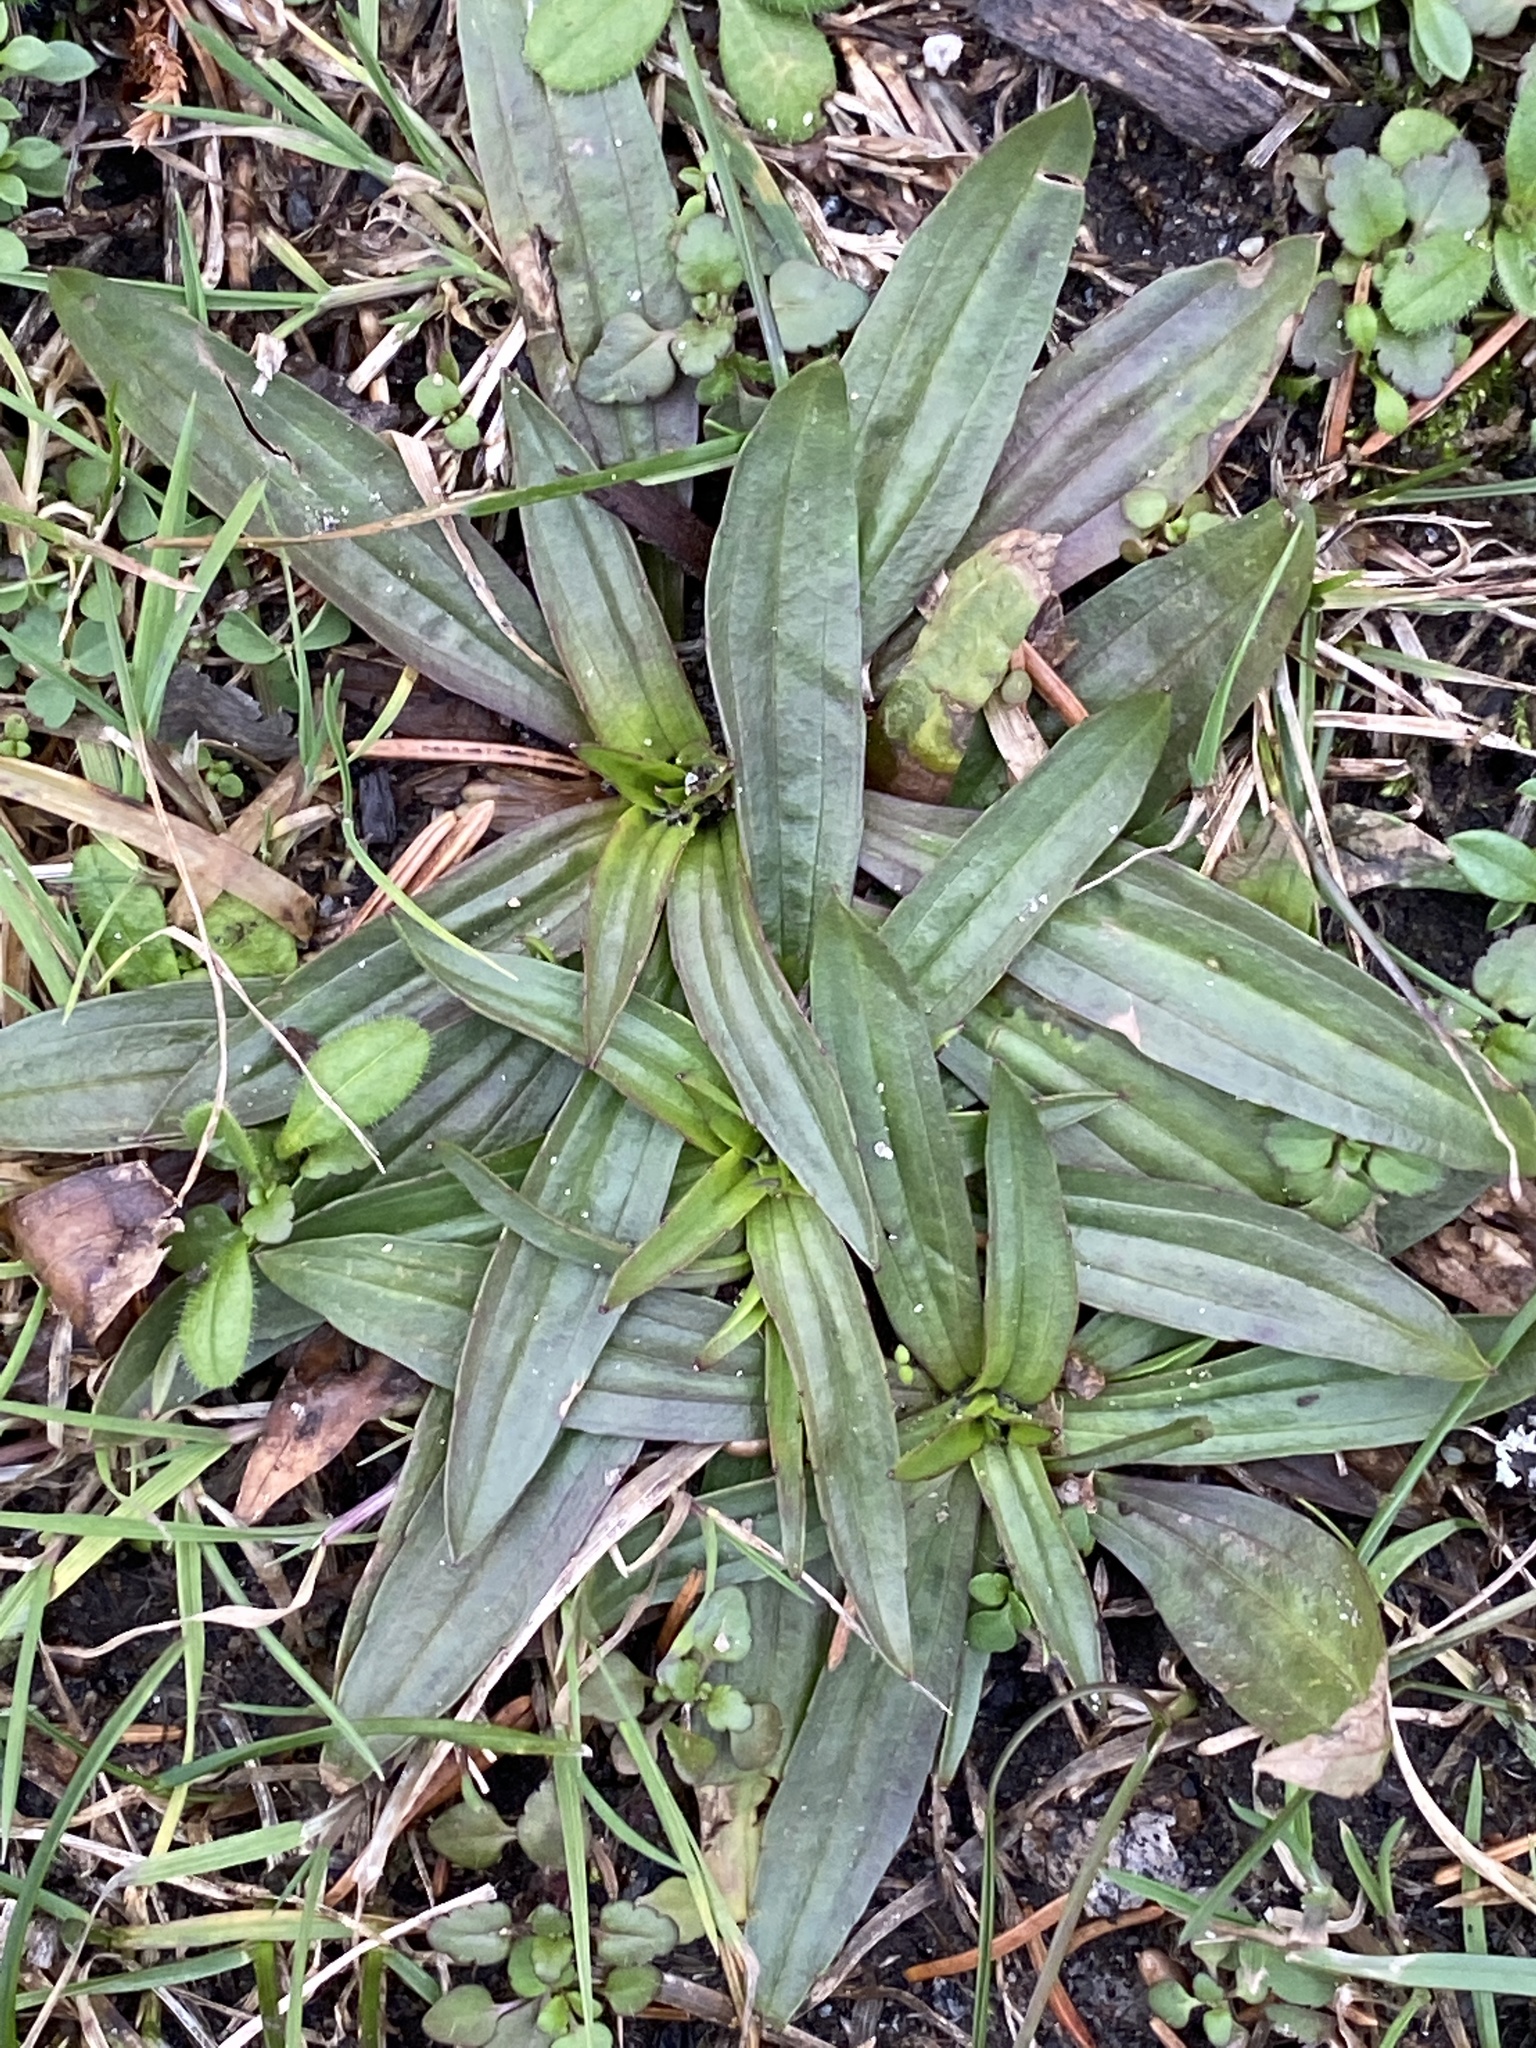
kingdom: Plantae
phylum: Tracheophyta
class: Magnoliopsida
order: Lamiales
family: Plantaginaceae
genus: Plantago
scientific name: Plantago lanceolata
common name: Ribwort plantain
